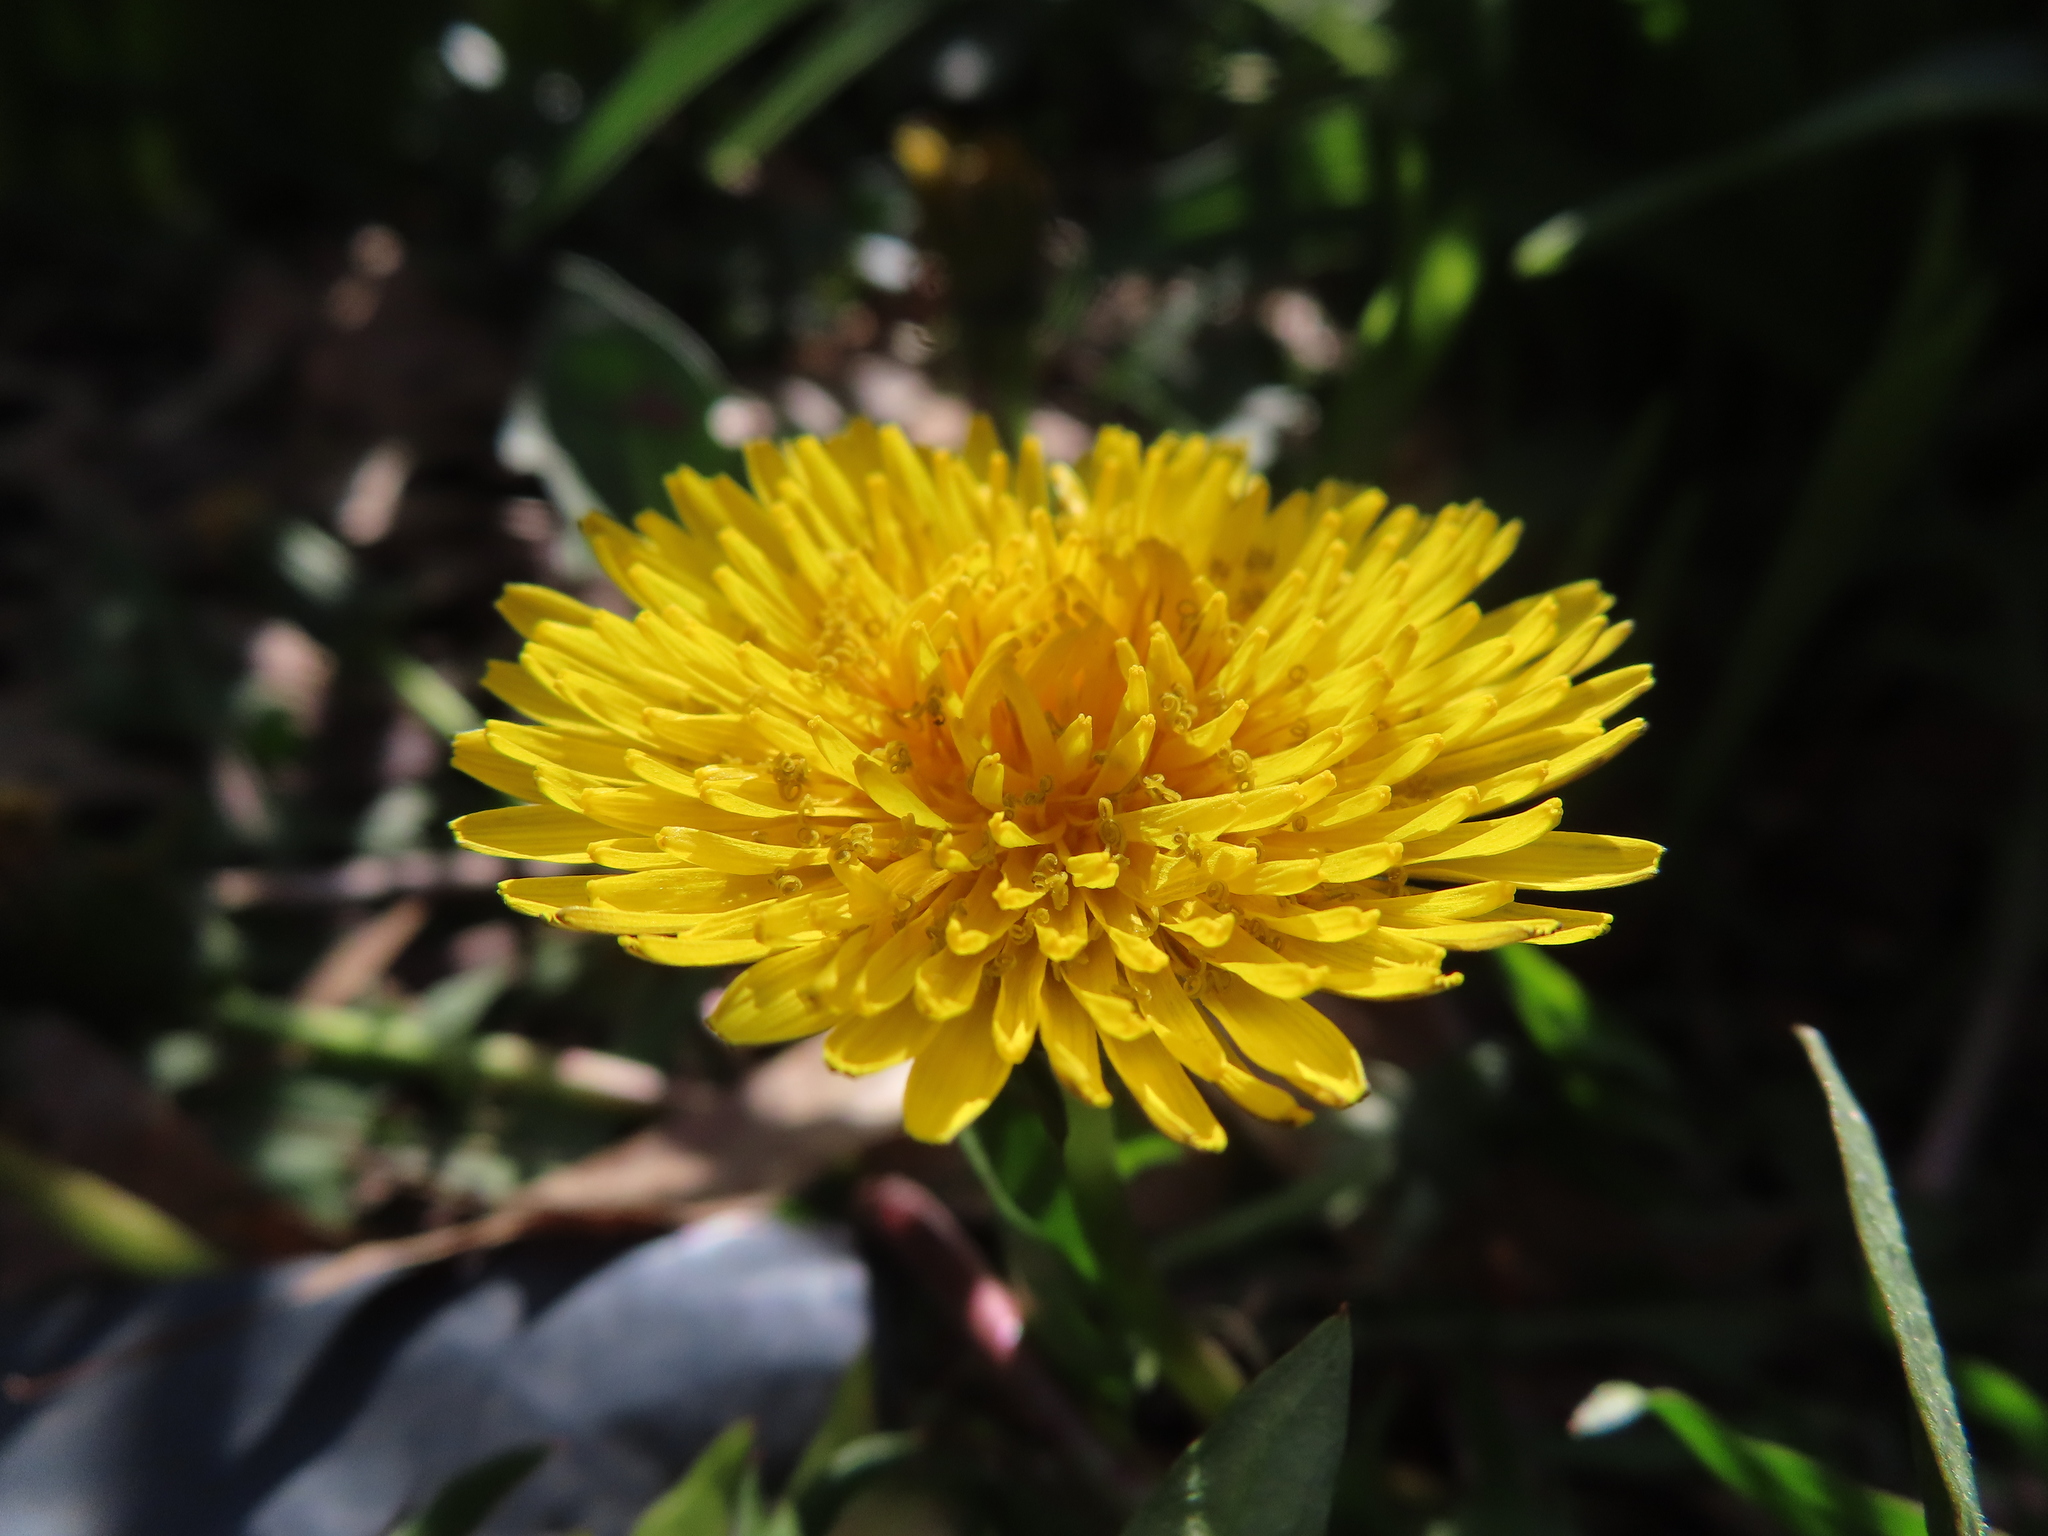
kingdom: Plantae
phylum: Tracheophyta
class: Magnoliopsida
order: Asterales
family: Asteraceae
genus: Taraxacum
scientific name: Taraxacum
